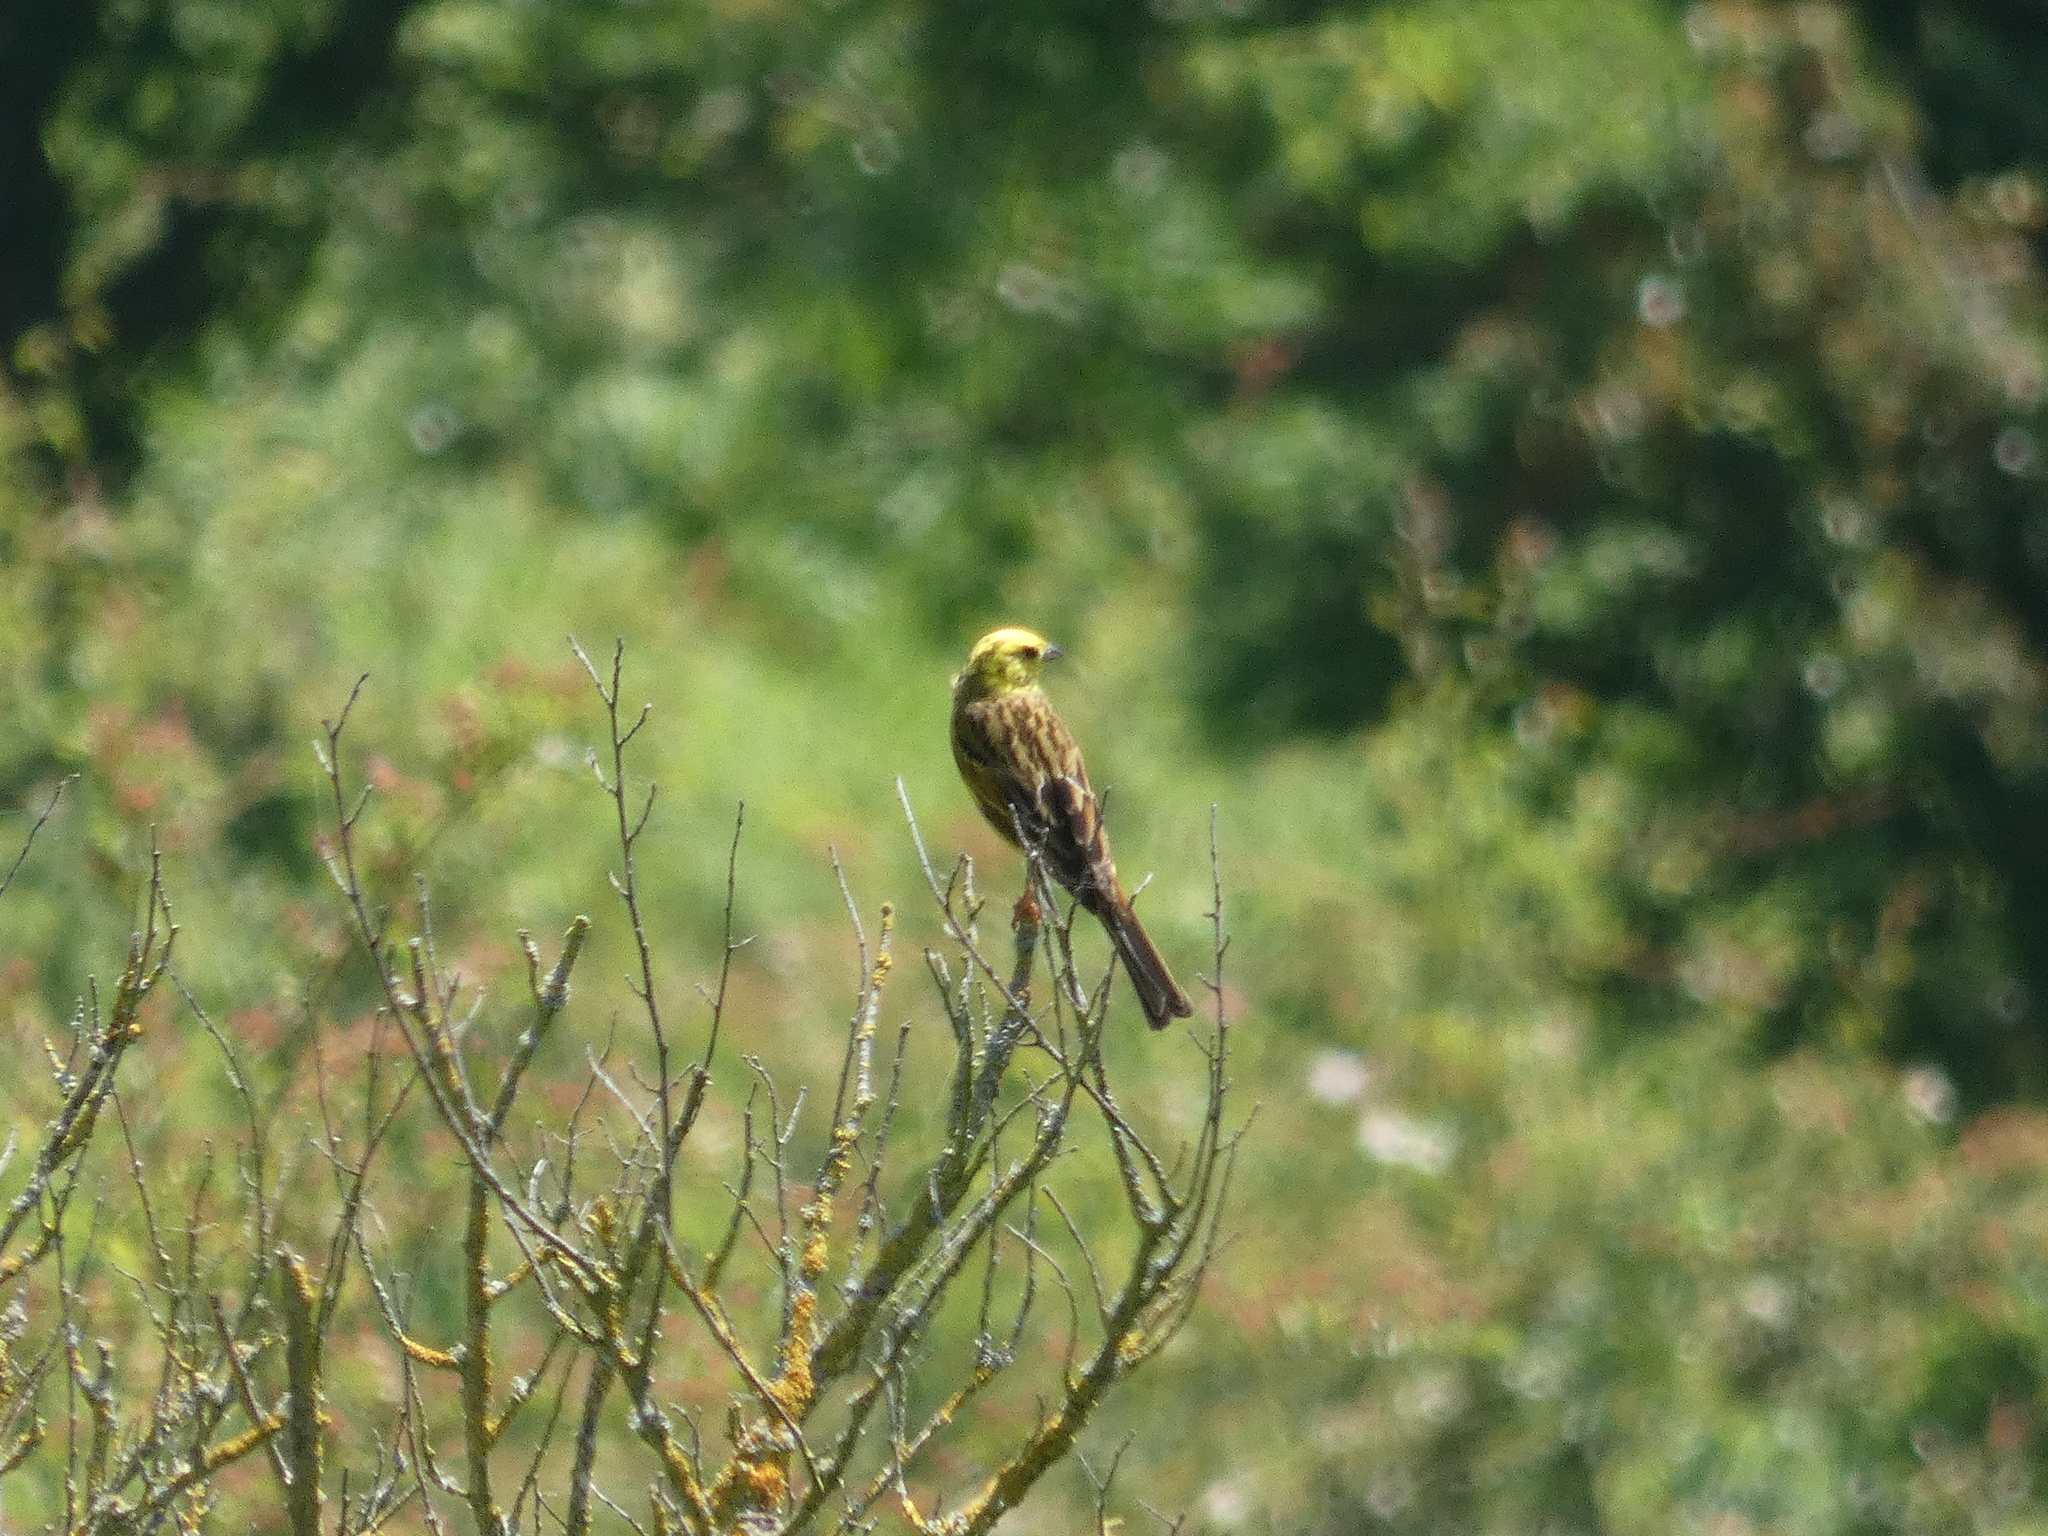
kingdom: Animalia
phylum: Chordata
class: Aves
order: Passeriformes
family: Emberizidae
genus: Emberiza
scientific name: Emberiza citrinella
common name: Yellowhammer
